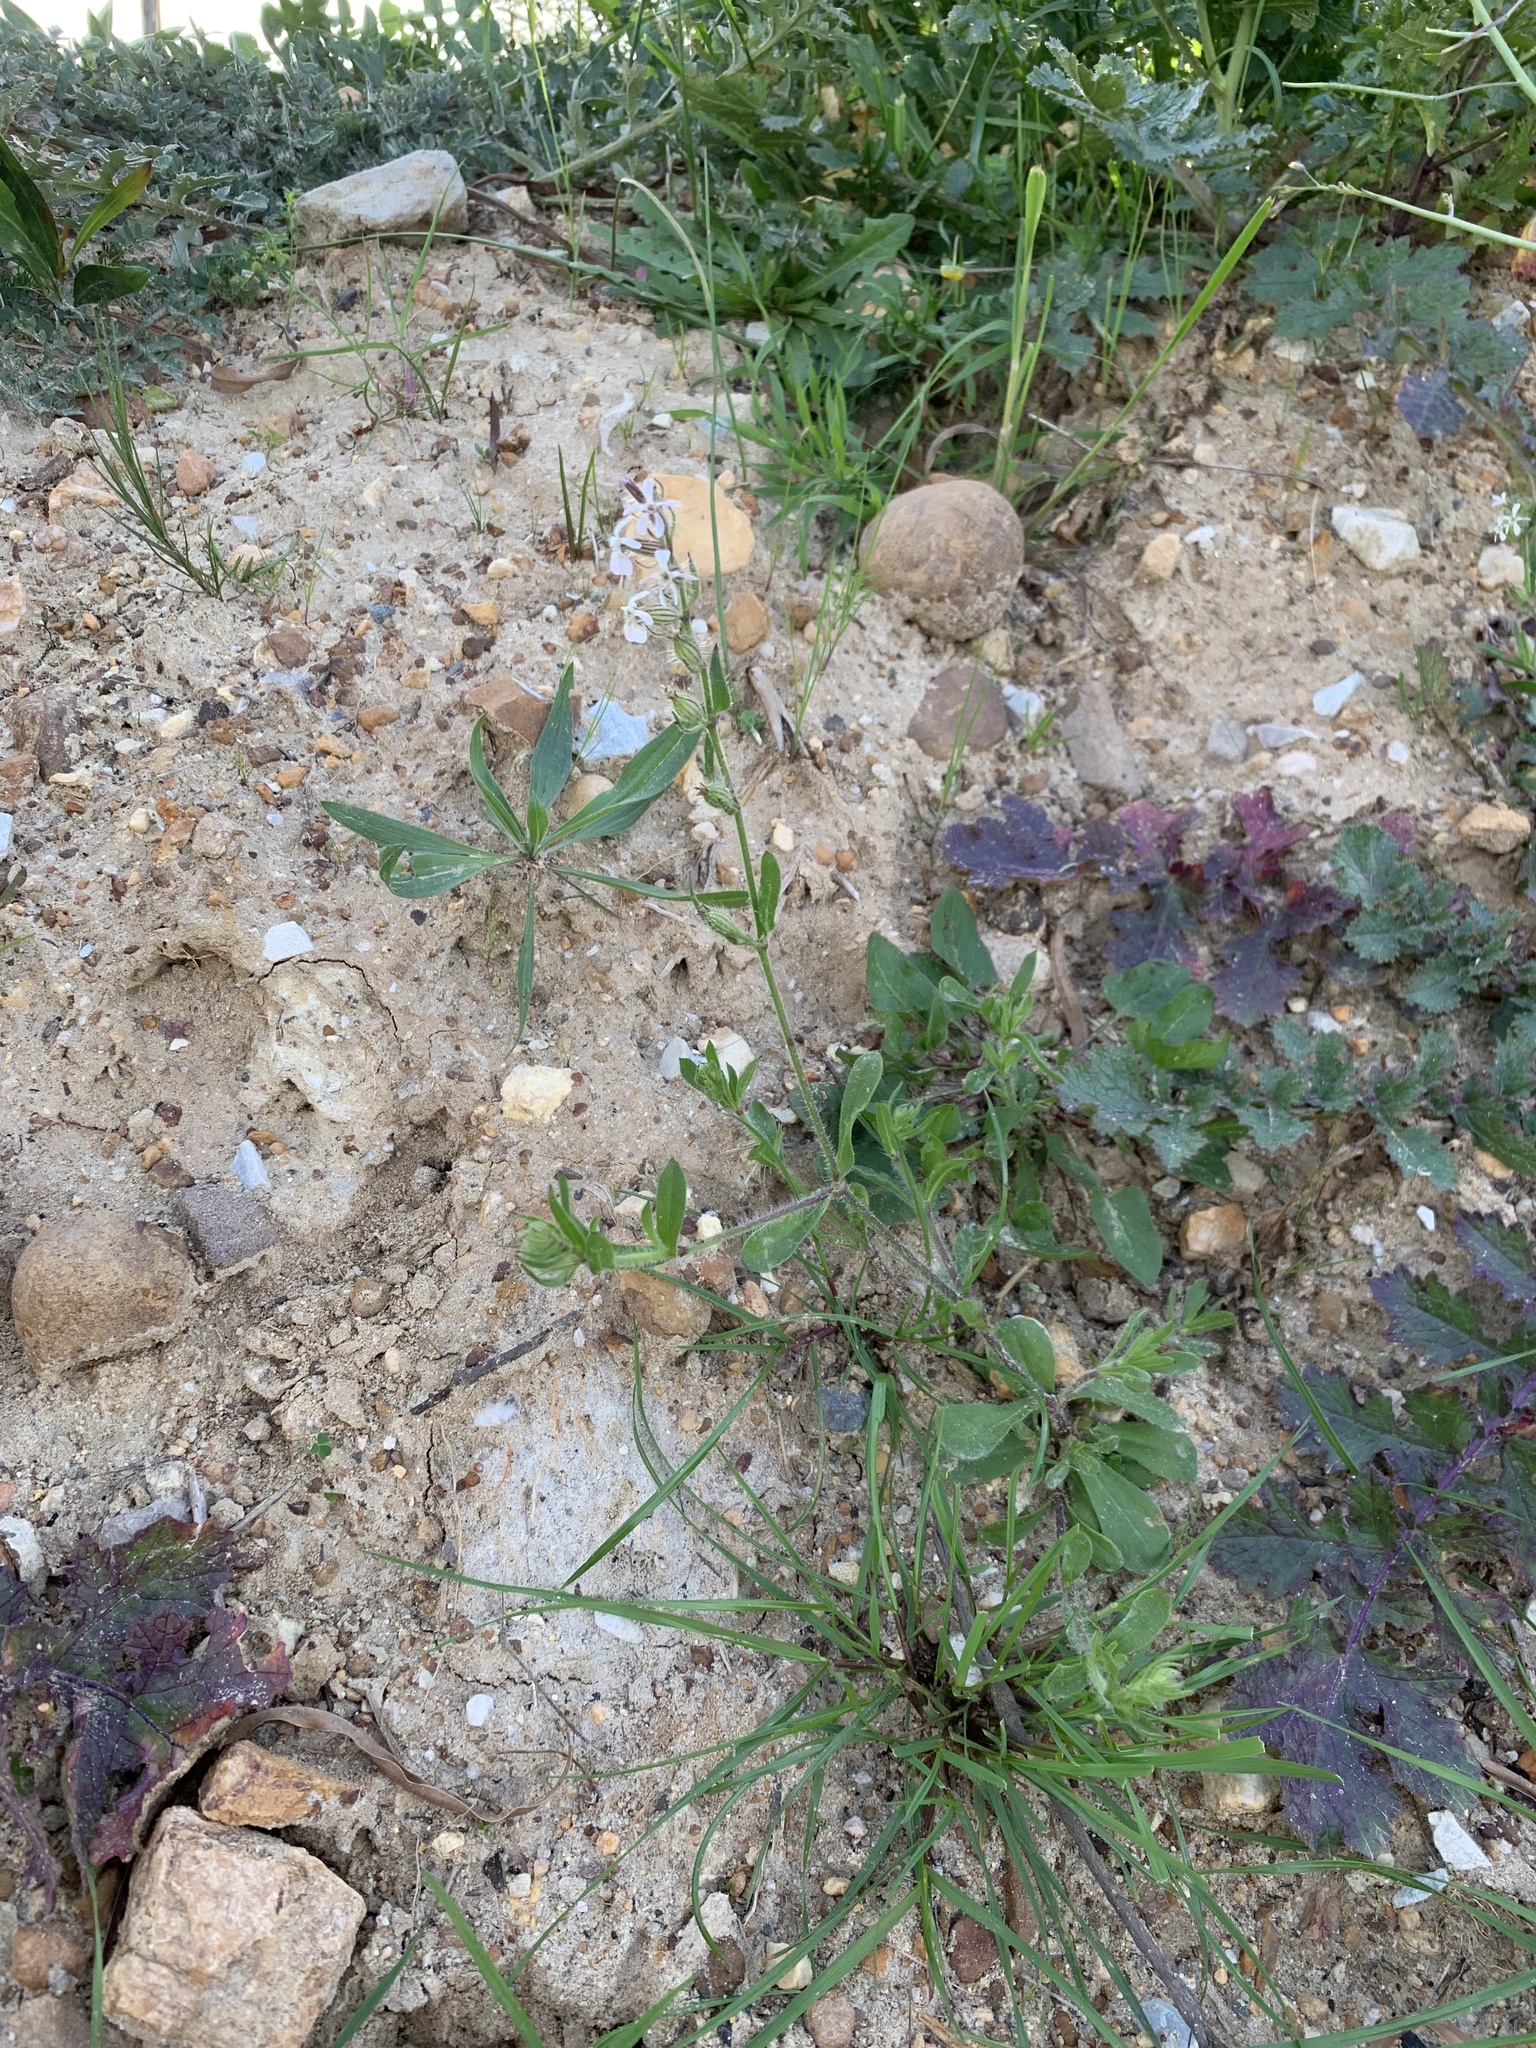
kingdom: Plantae
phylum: Tracheophyta
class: Magnoliopsida
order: Caryophyllales
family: Caryophyllaceae
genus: Silene
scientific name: Silene gallica
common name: Small-flowered catchfly
